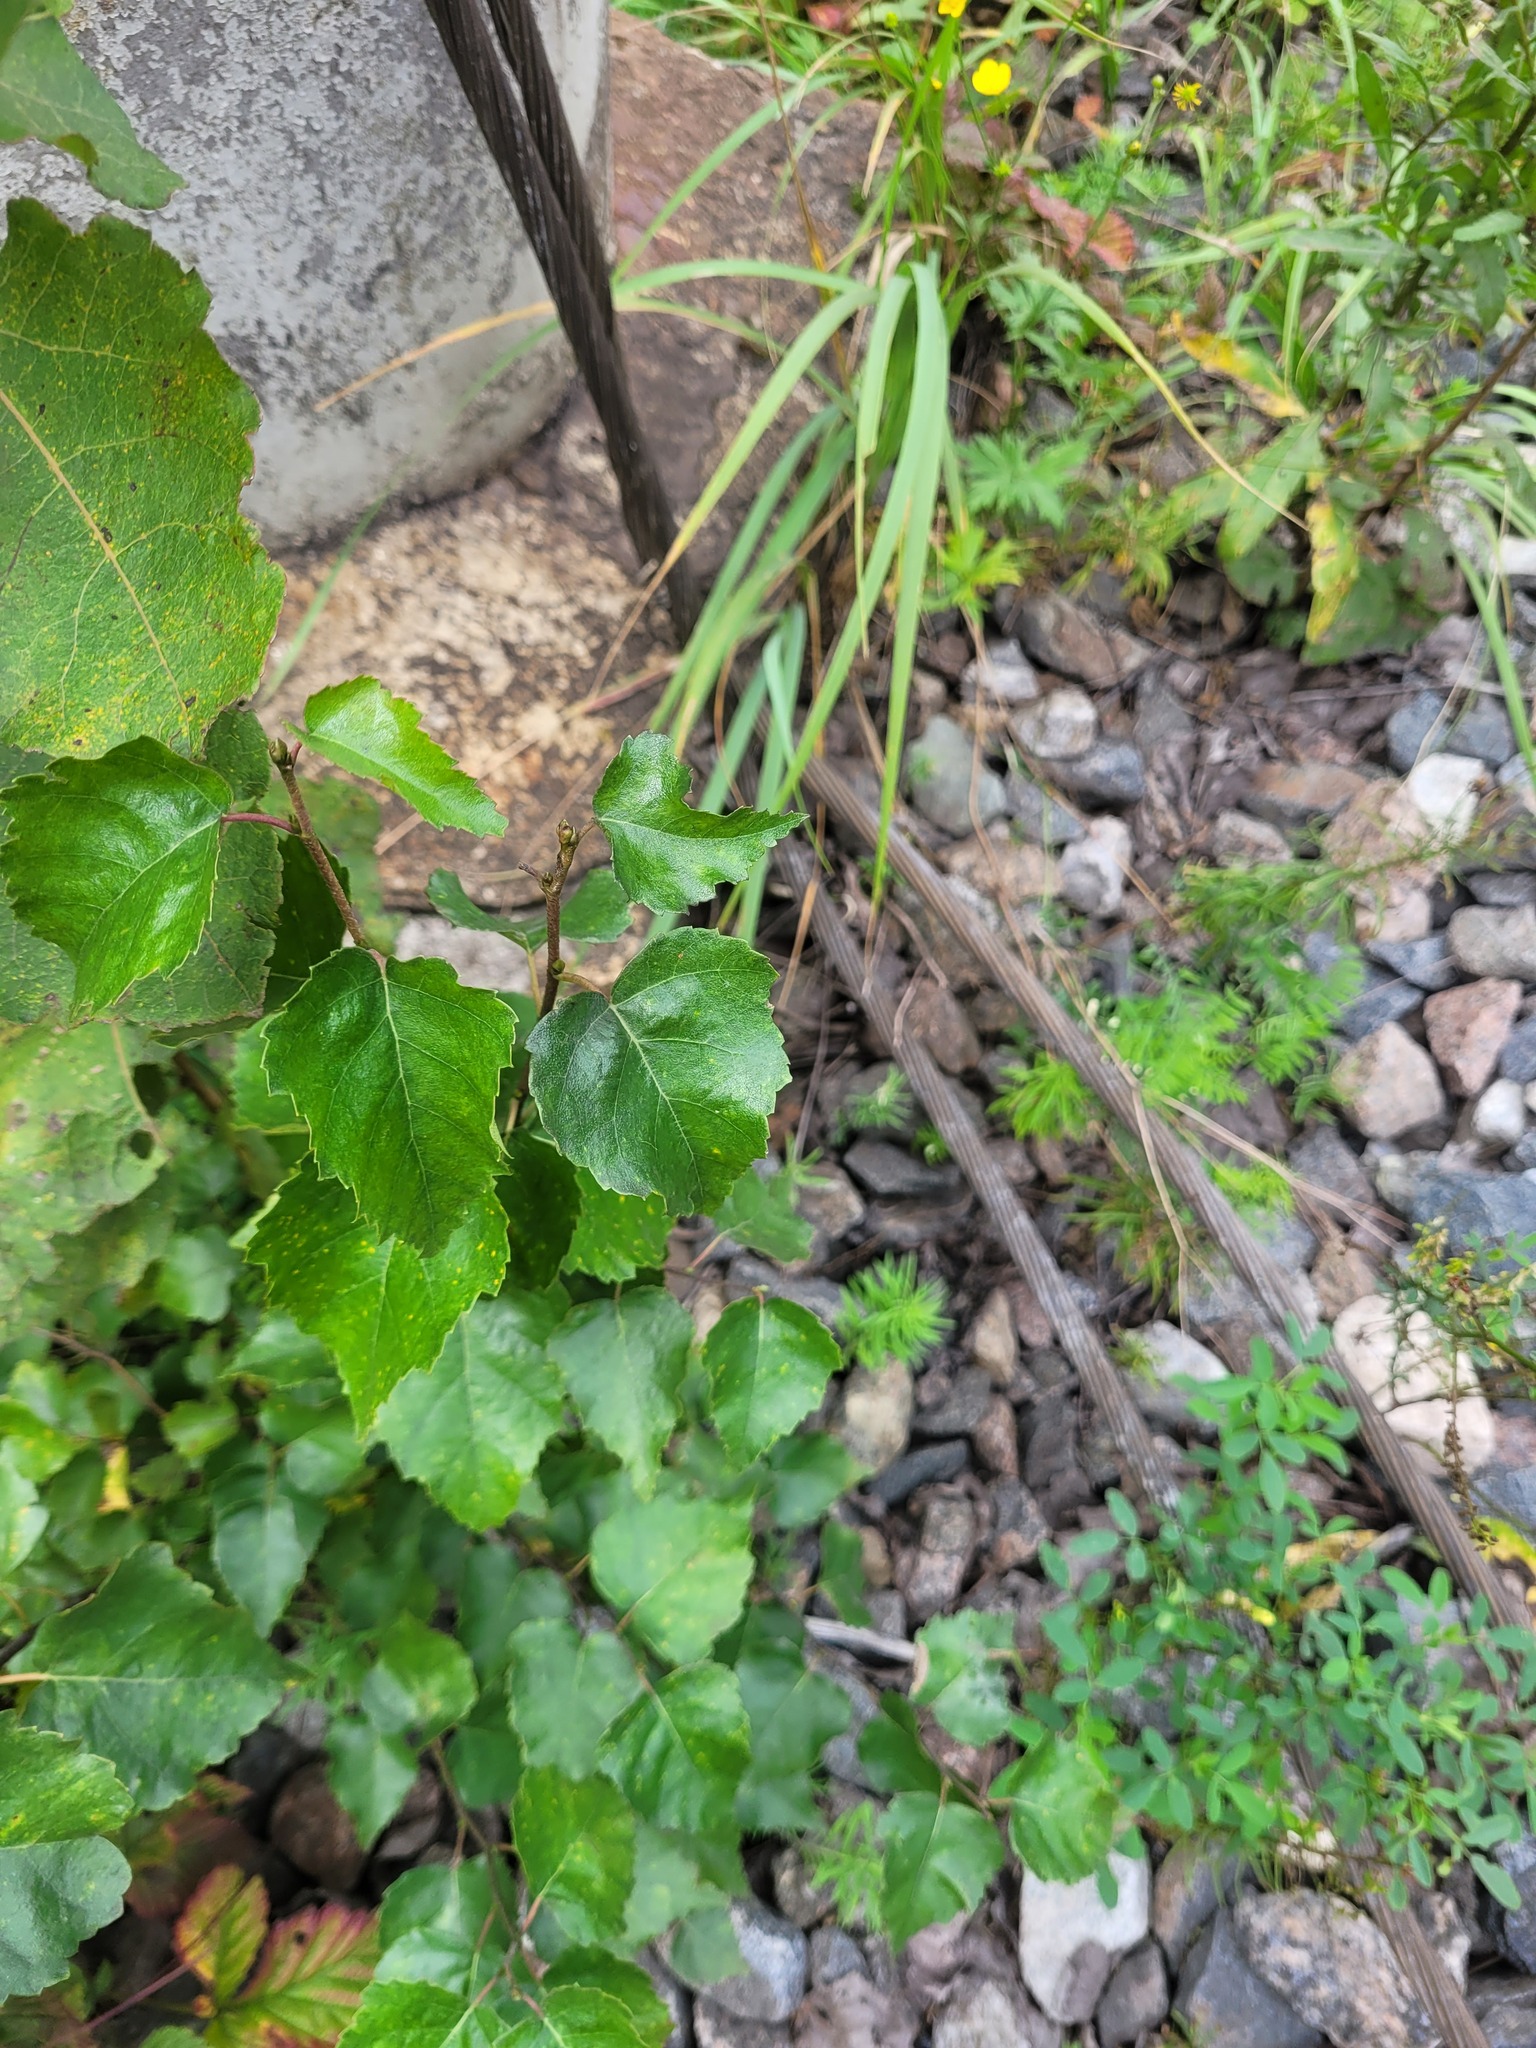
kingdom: Plantae
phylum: Tracheophyta
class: Magnoliopsida
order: Fagales
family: Betulaceae
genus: Betula
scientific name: Betula pendula
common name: Silver birch
